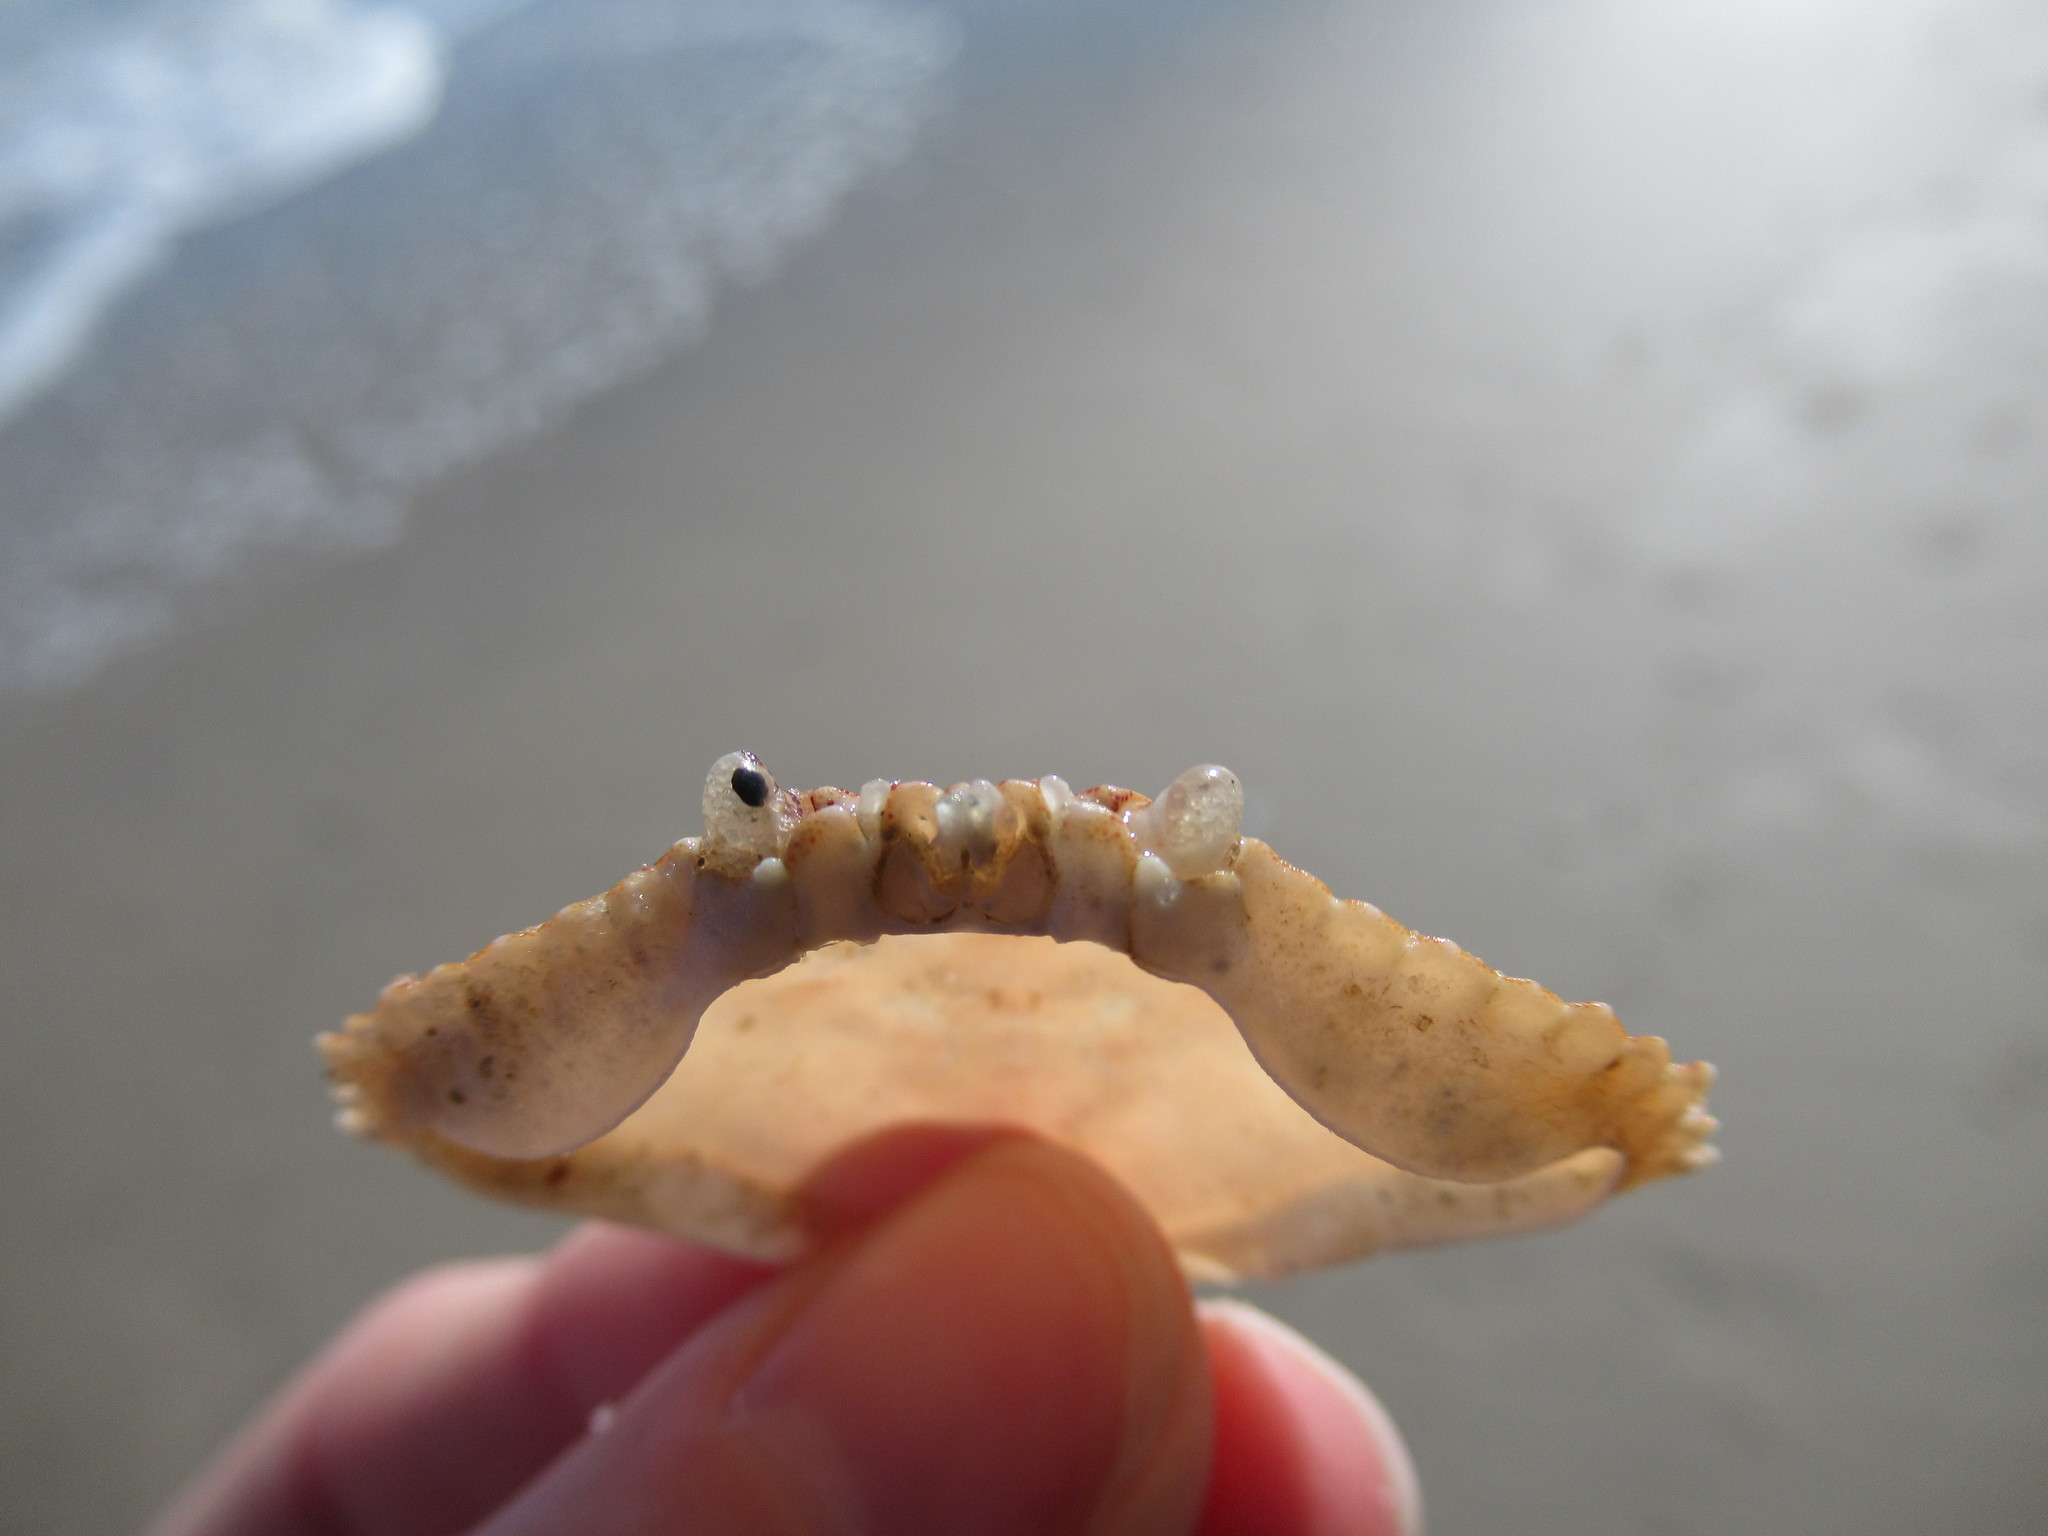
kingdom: Animalia
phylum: Arthropoda
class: Malacostraca
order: Decapoda
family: Cancridae
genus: Cancer
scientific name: Cancer irroratus
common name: Atlantic rock crab
